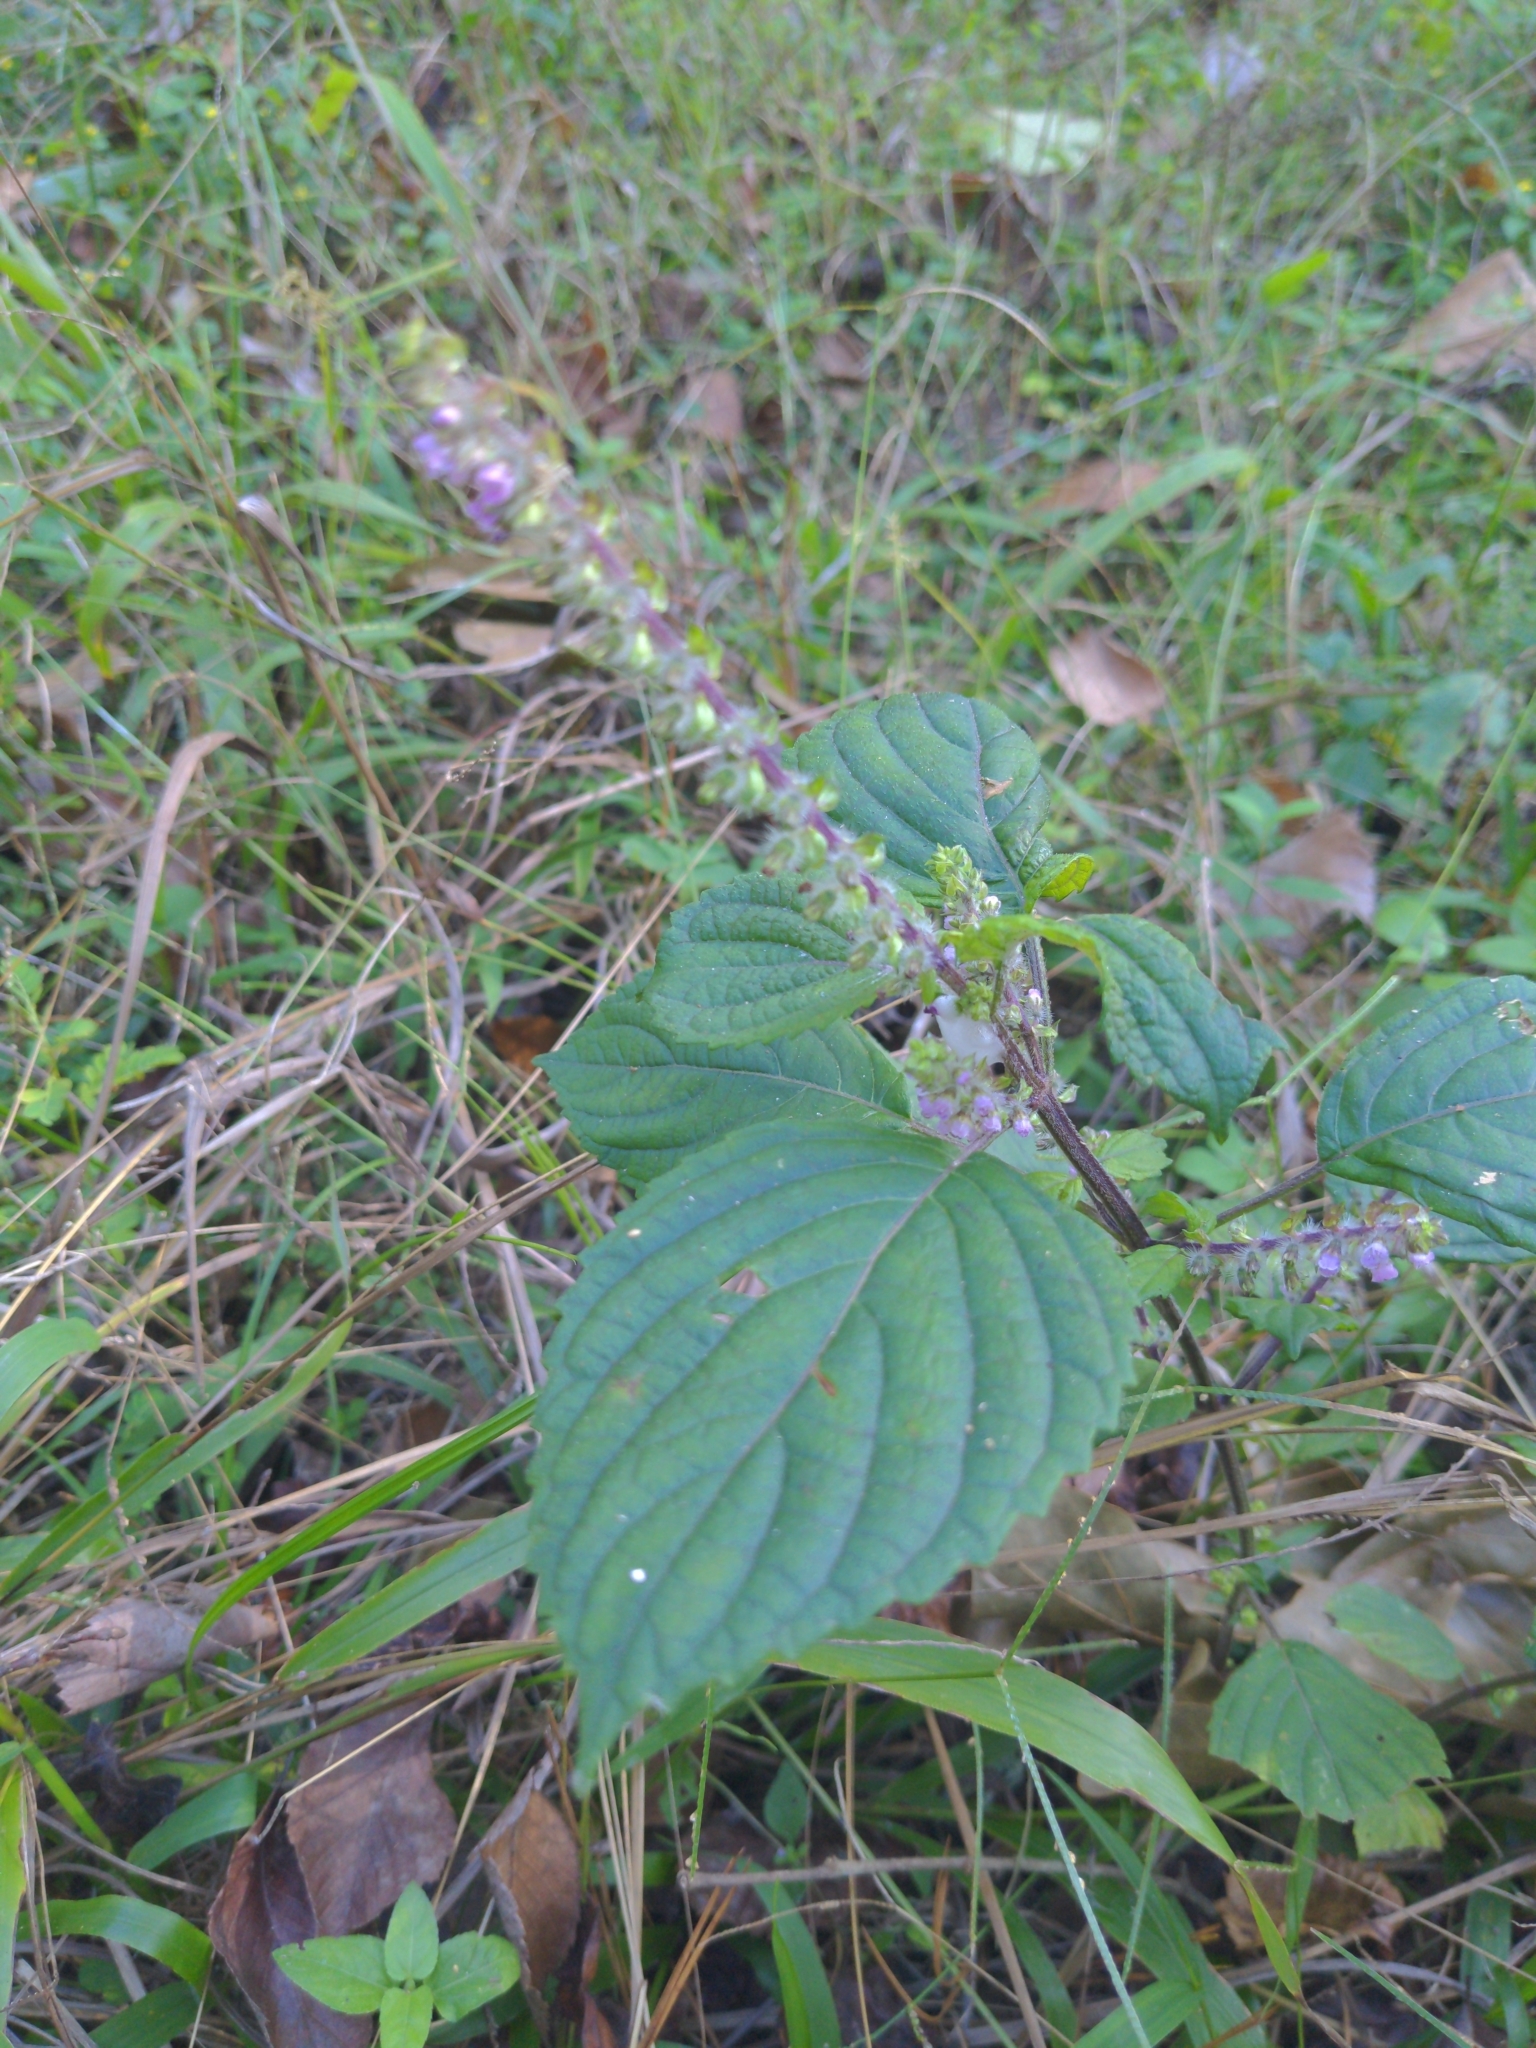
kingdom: Plantae
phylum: Tracheophyta
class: Magnoliopsida
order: Lamiales
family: Lamiaceae
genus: Perilla
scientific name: Perilla frutescens
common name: Perilla
